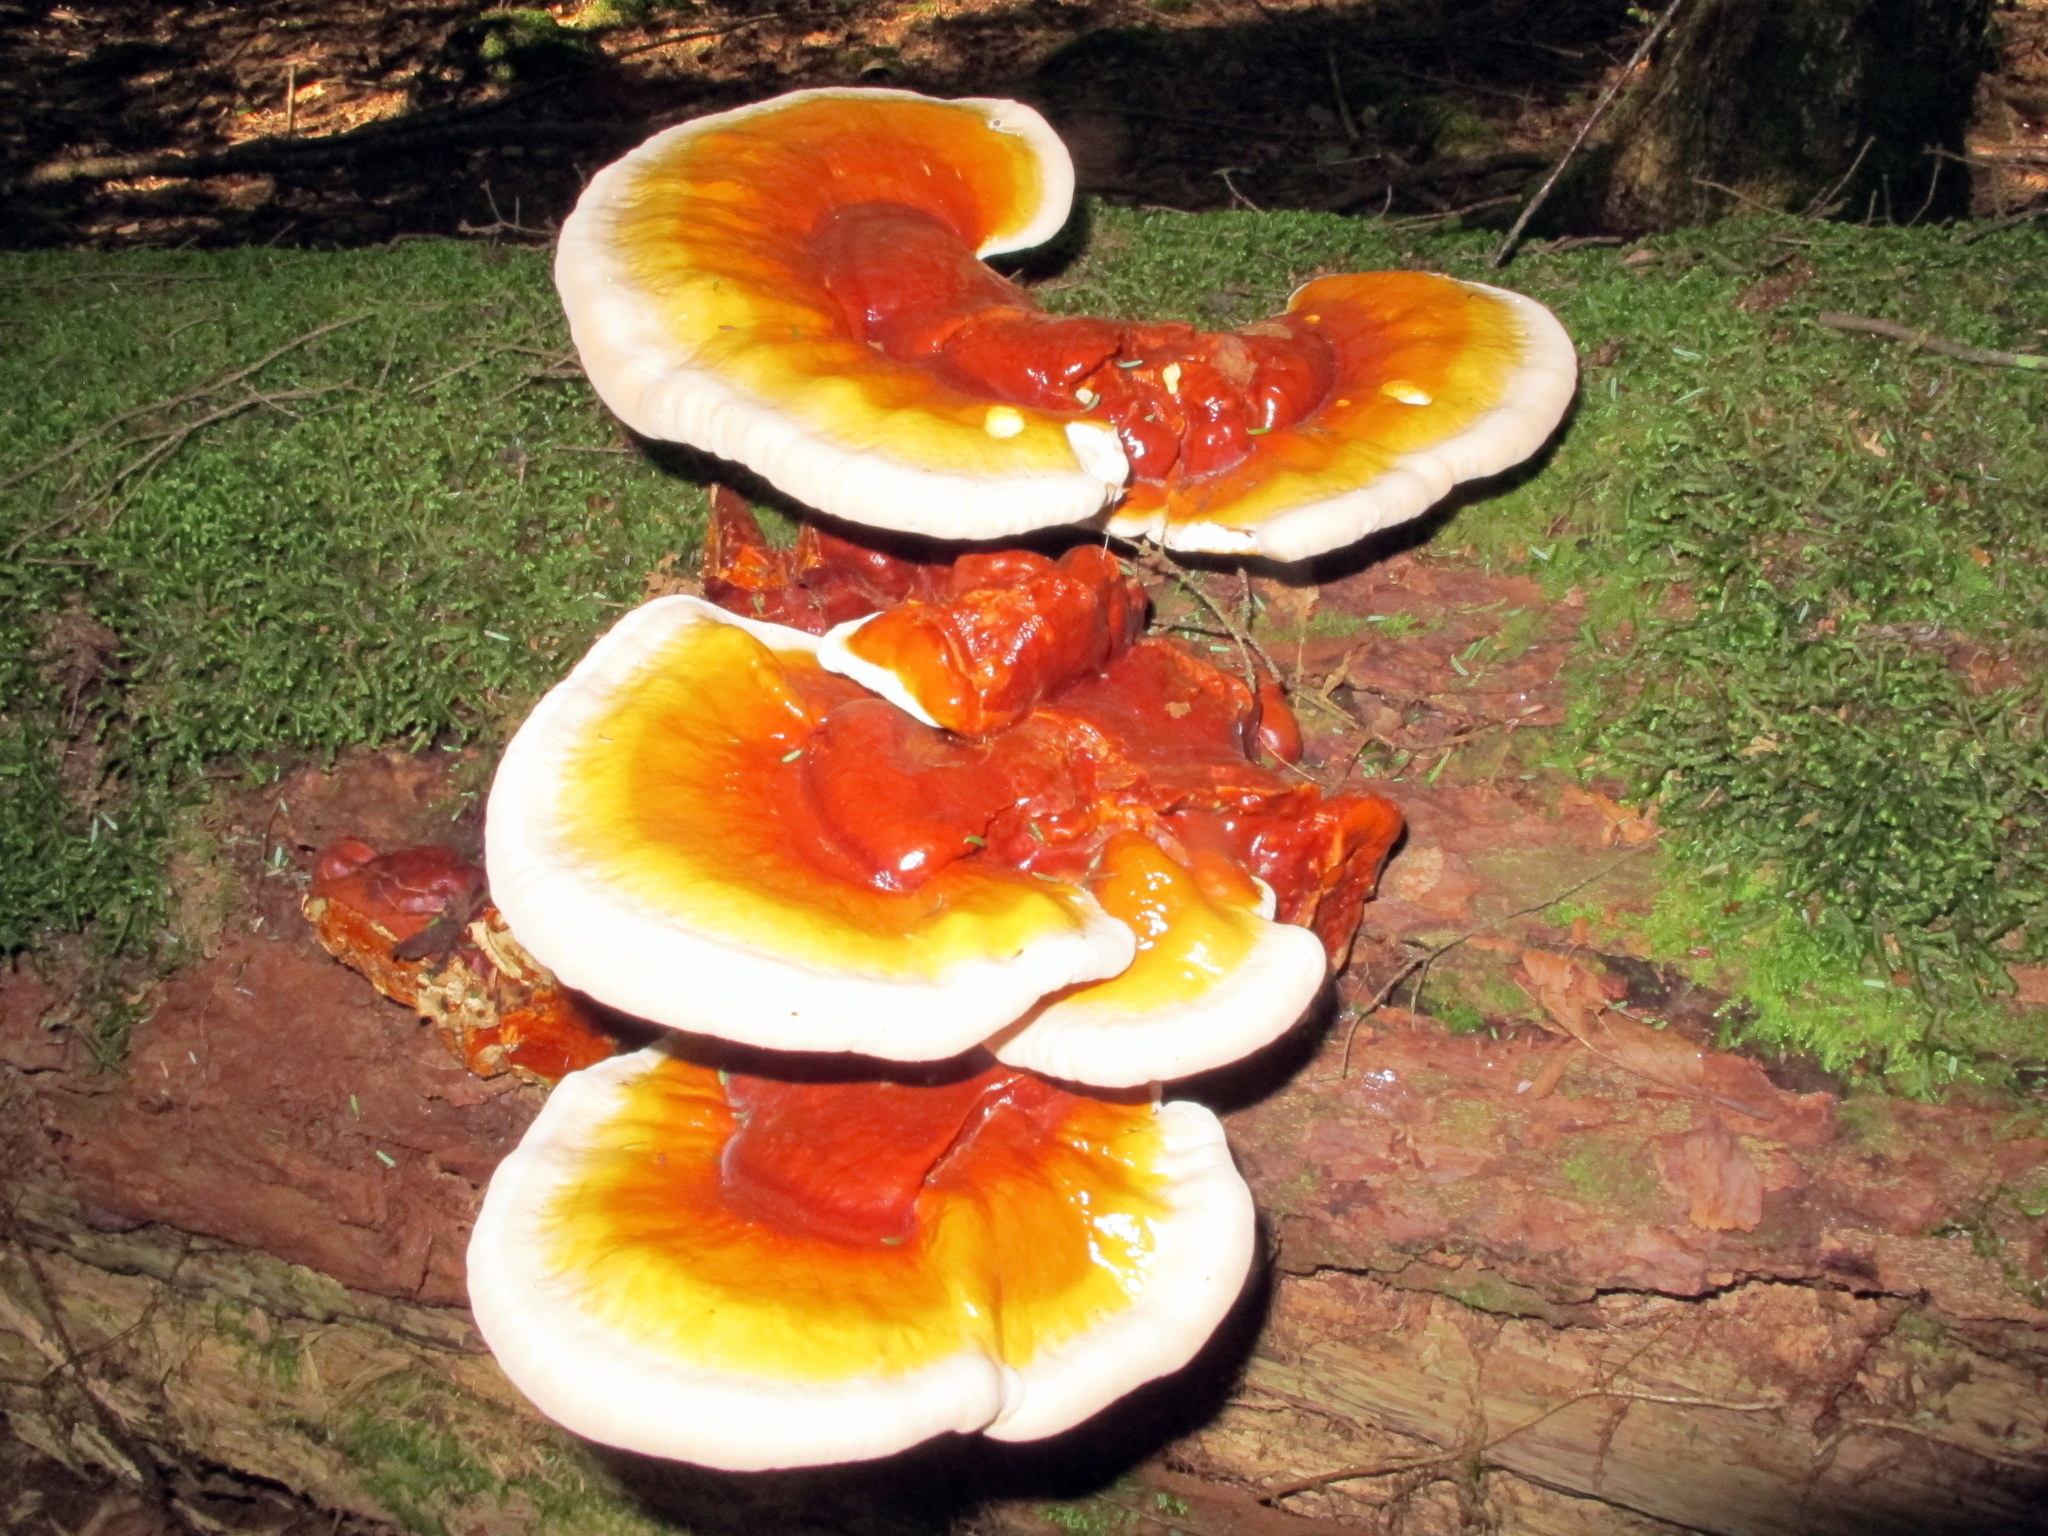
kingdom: Fungi
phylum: Basidiomycota
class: Agaricomycetes
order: Polyporales
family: Polyporaceae
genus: Ganoderma
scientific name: Ganoderma tsugae
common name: Hemlock varnish shelf
